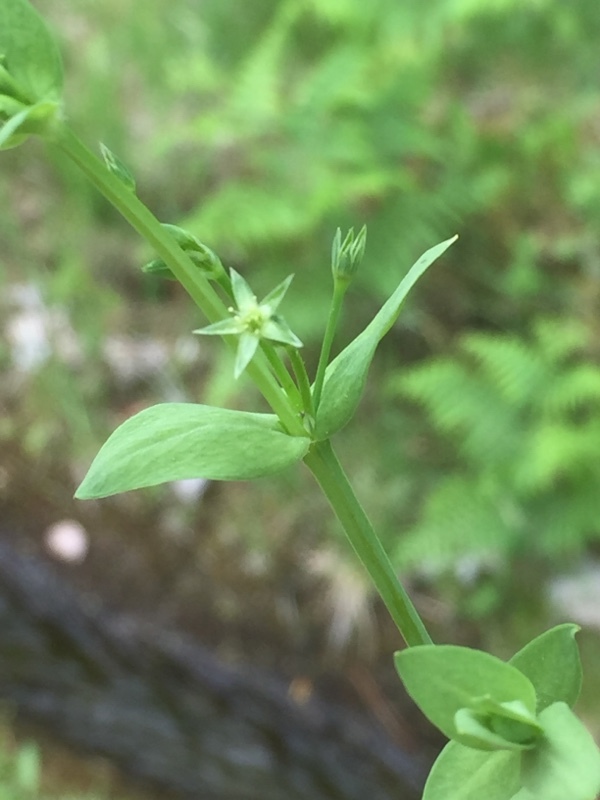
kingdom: Plantae
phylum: Tracheophyta
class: Magnoliopsida
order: Caryophyllales
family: Caryophyllaceae
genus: Stellaria
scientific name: Stellaria alsine
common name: Bog stitchwort
